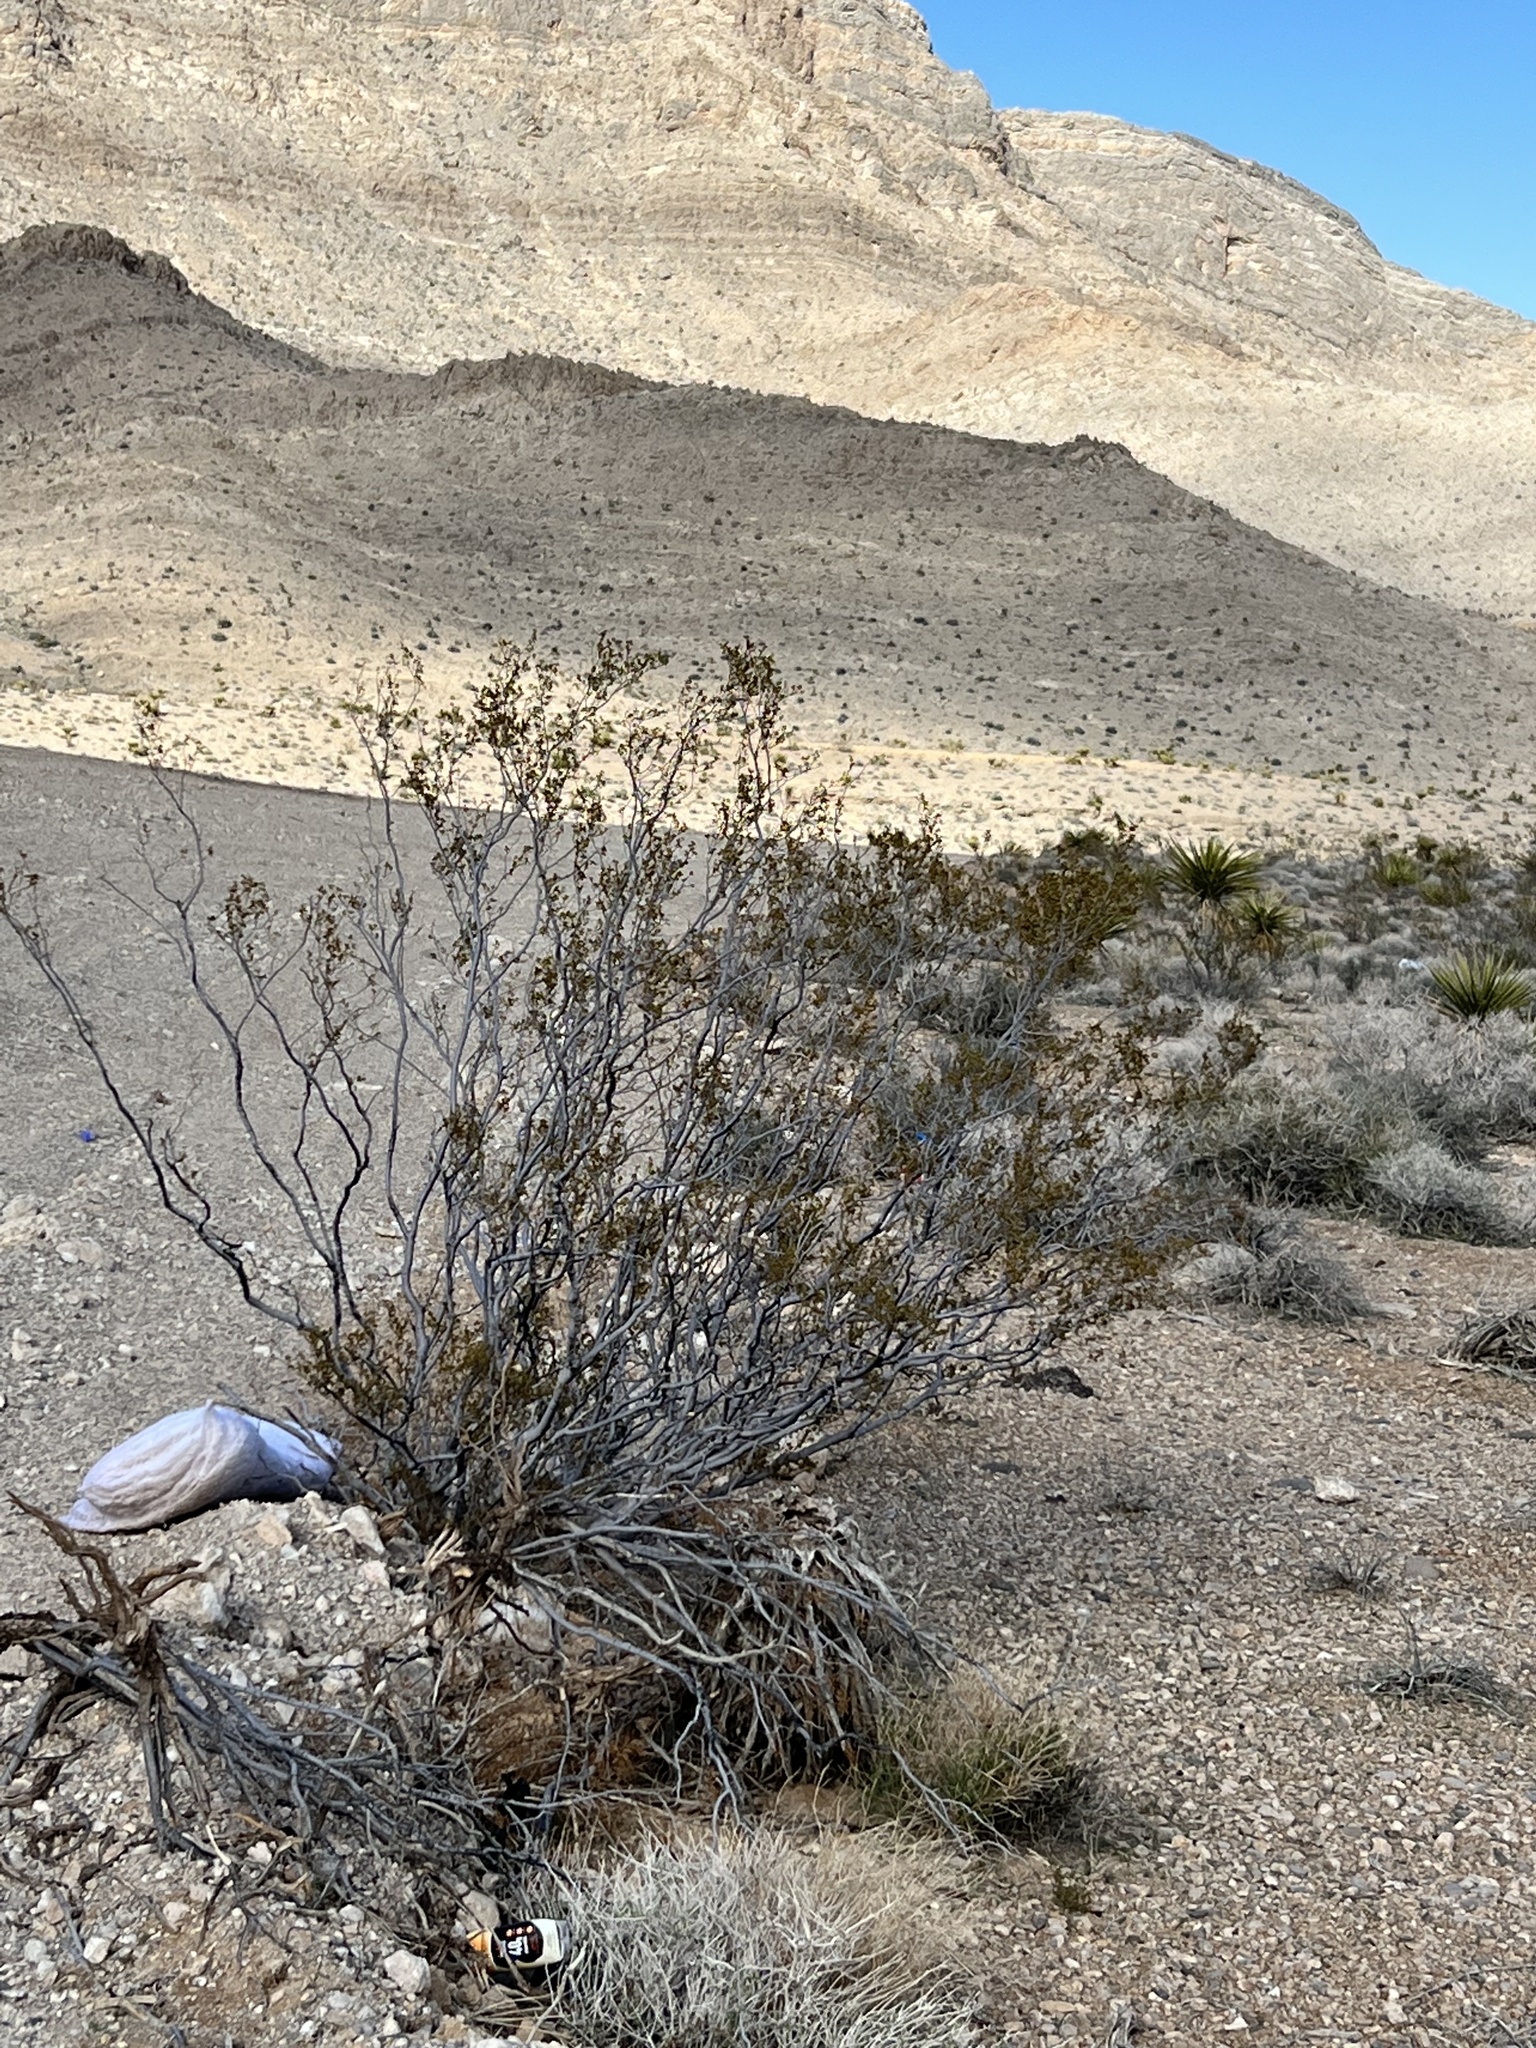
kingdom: Plantae
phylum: Tracheophyta
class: Magnoliopsida
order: Zygophyllales
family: Zygophyllaceae
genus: Larrea
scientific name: Larrea tridentata
